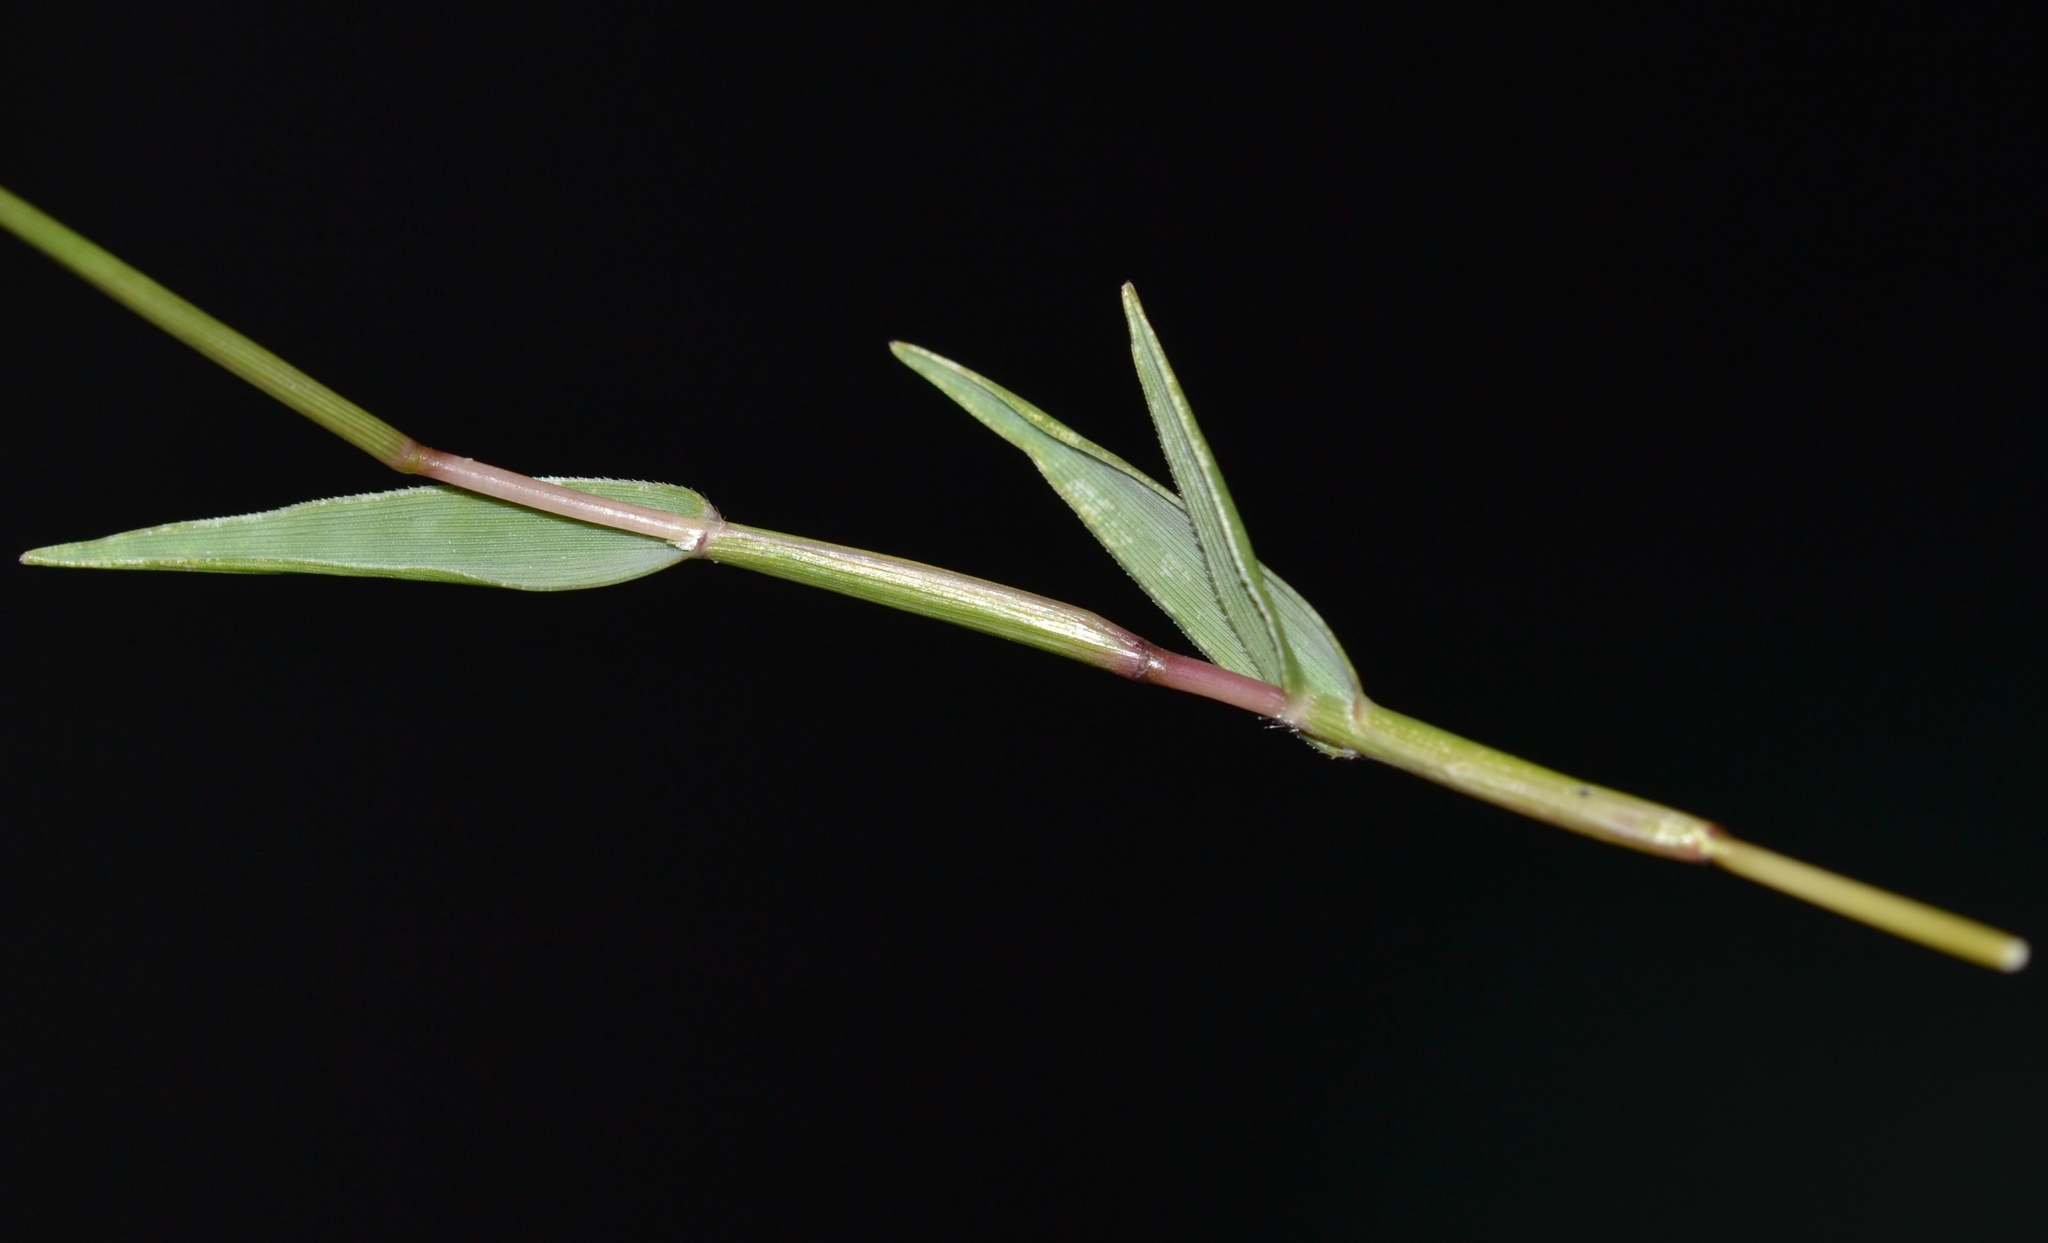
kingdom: Plantae
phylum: Tracheophyta
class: Liliopsida
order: Poales
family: Poaceae
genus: Sporobolus
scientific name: Sporobolus pyramidatus
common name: Whorled dropseed
